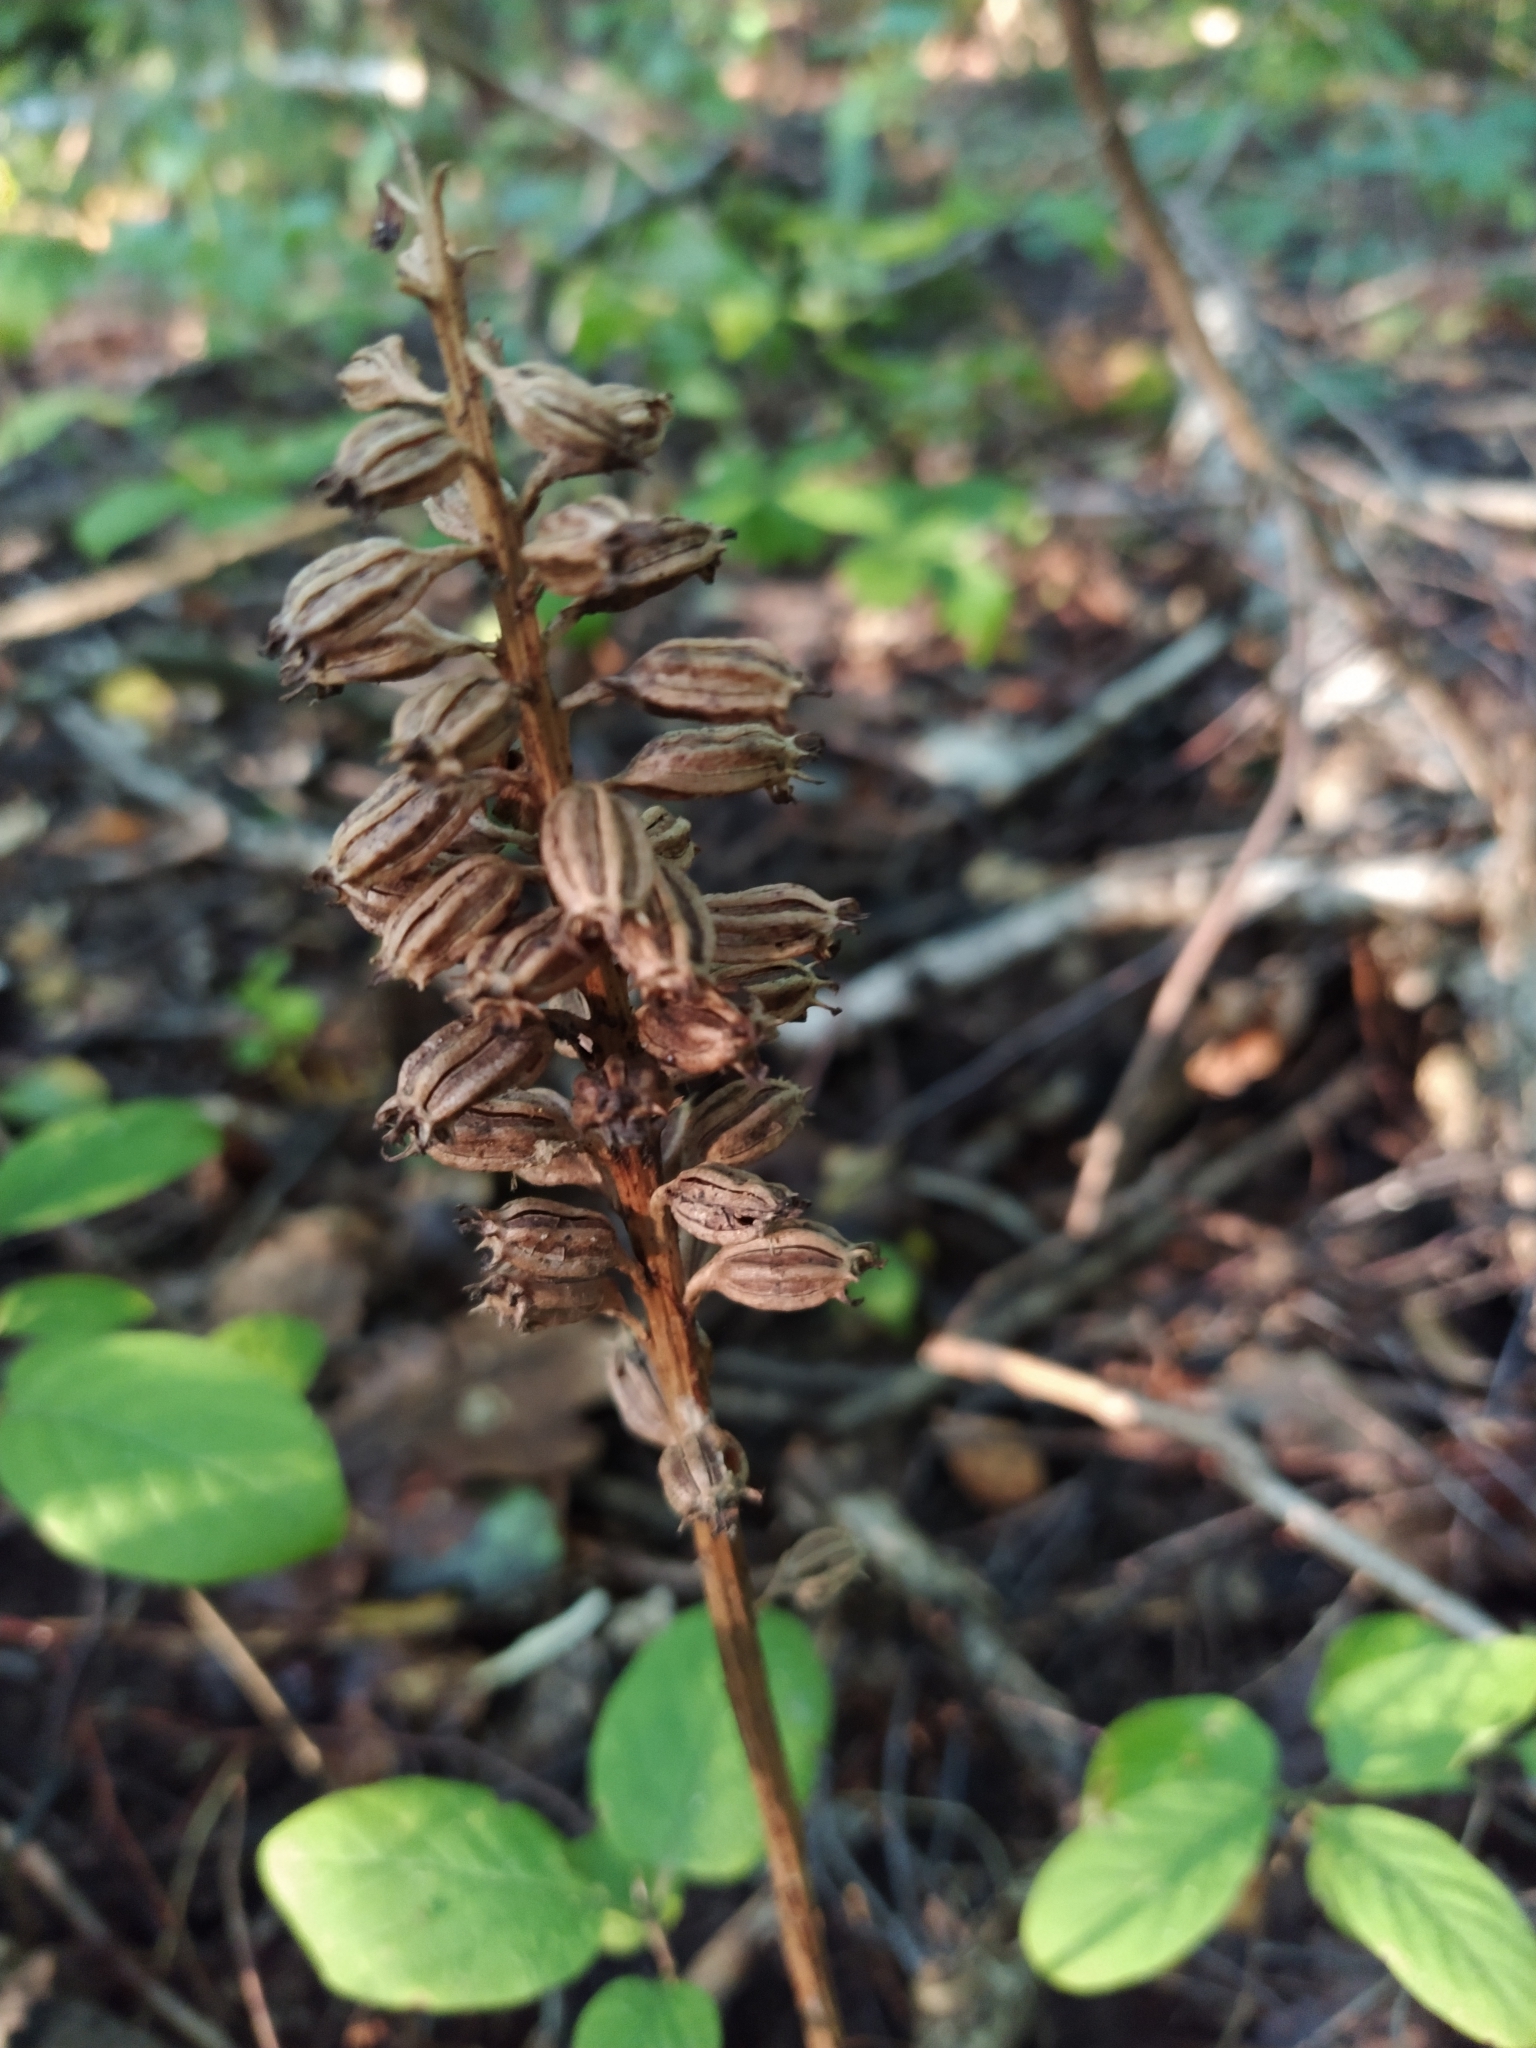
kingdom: Plantae
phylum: Tracheophyta
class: Liliopsida
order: Asparagales
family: Orchidaceae
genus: Neottia
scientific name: Neottia nidus-avis
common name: Bird's-nest orchid
